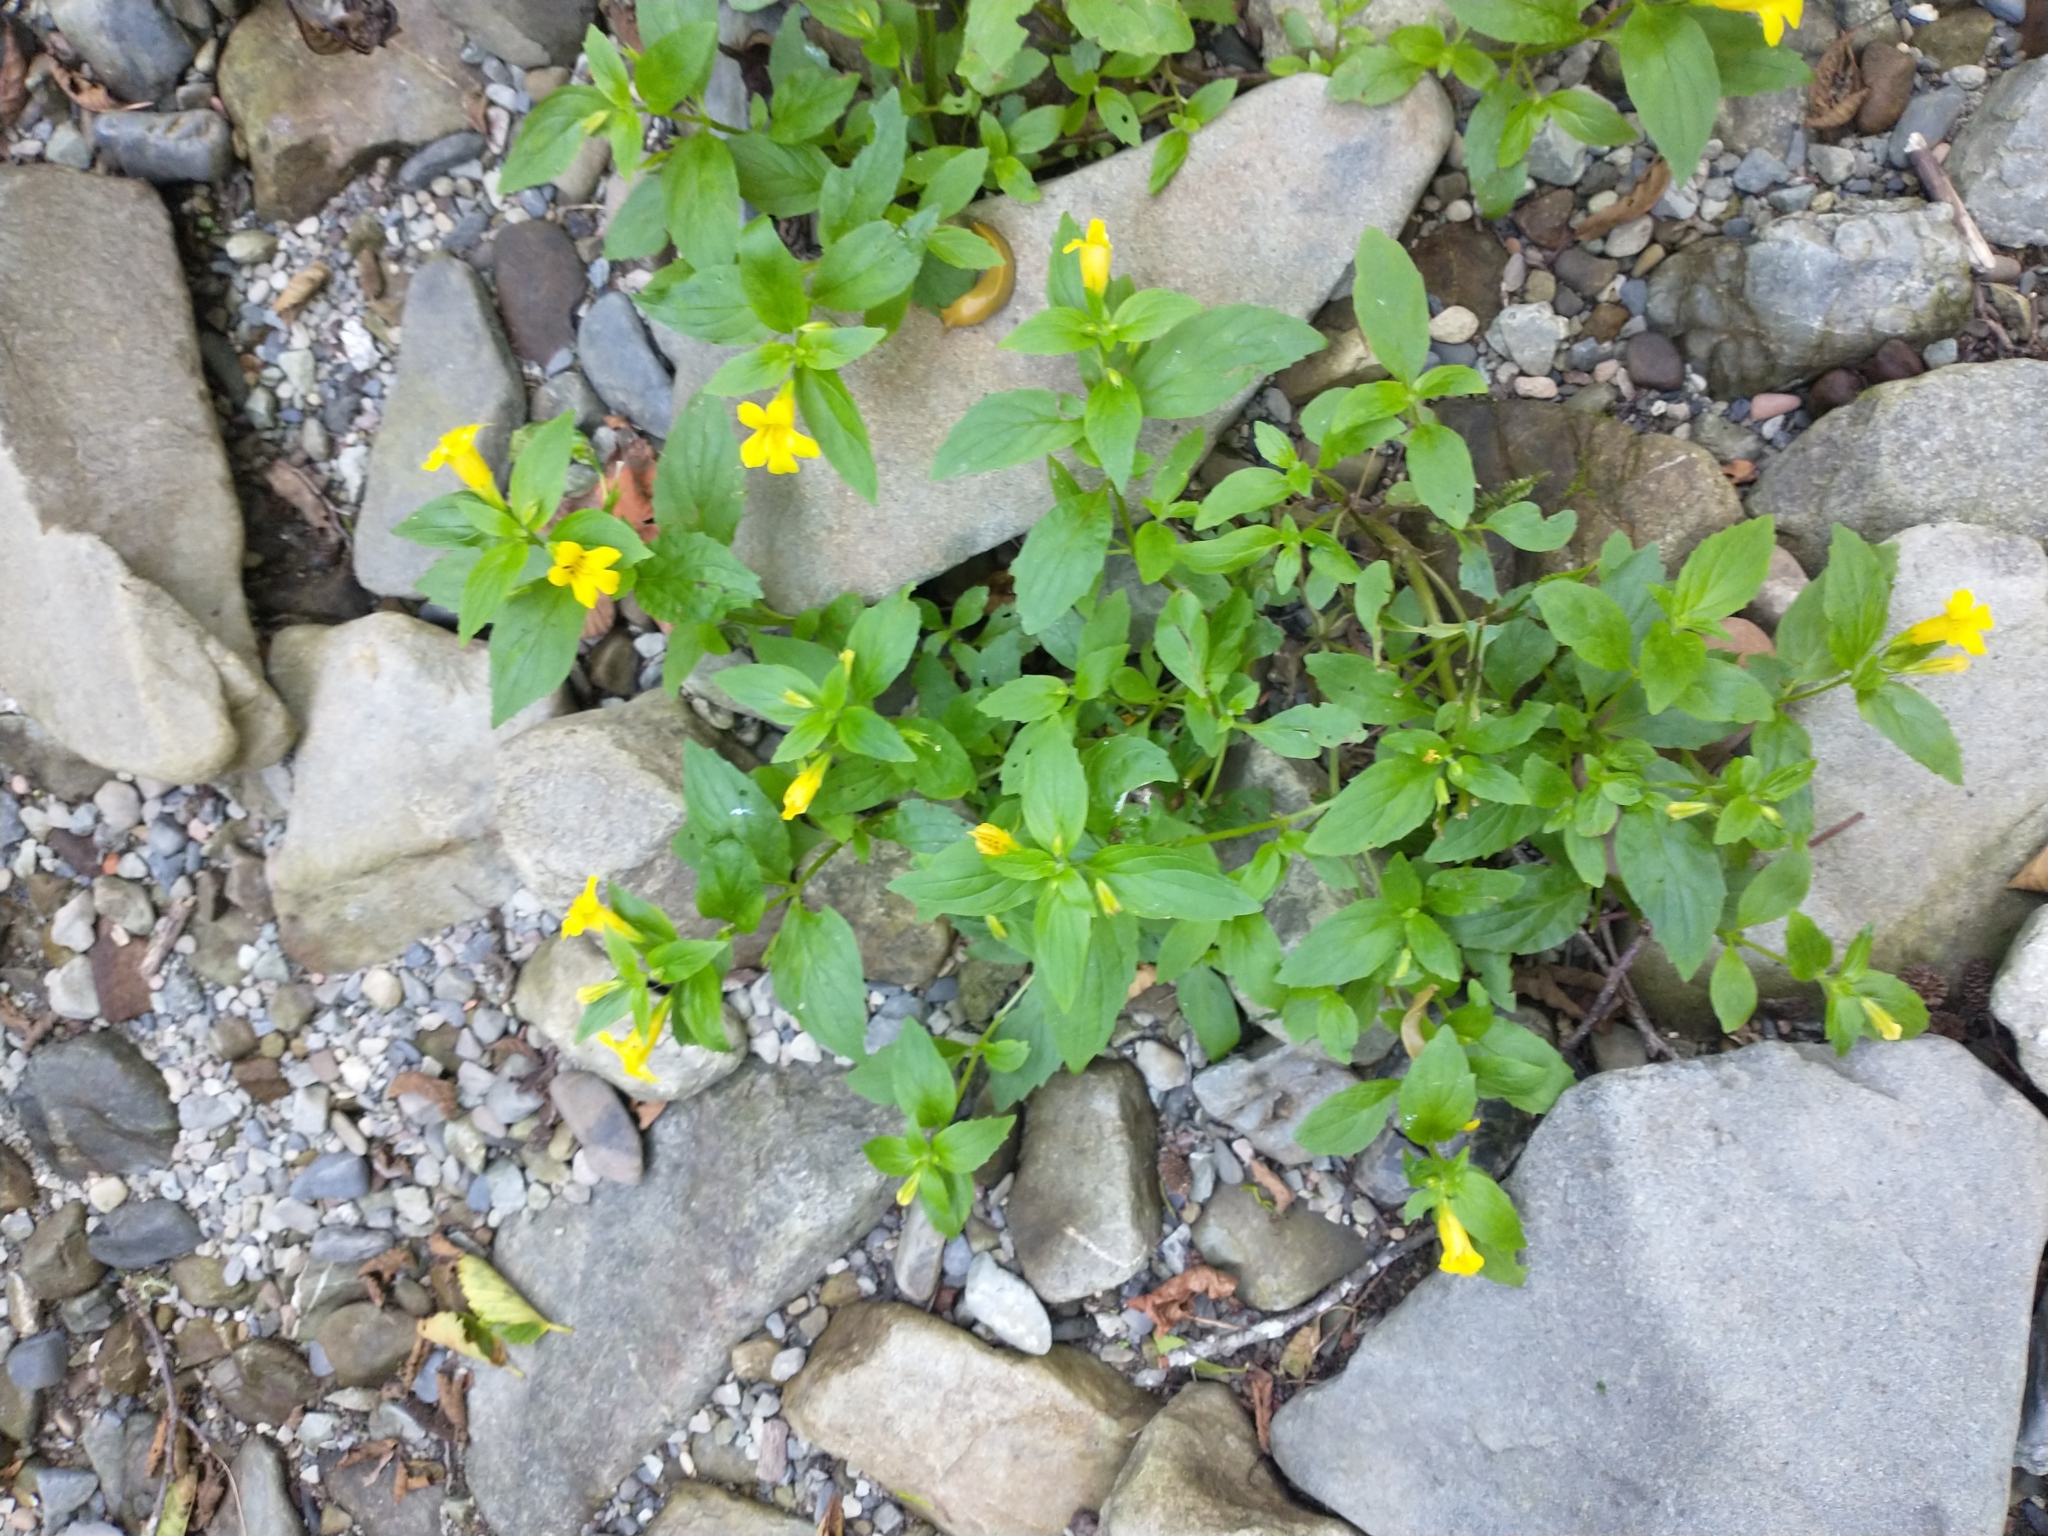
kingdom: Plantae
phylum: Tracheophyta
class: Magnoliopsida
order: Lamiales
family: Phrymaceae
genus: Erythranthe
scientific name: Erythranthe dentata
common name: Coastal monkeyflower
